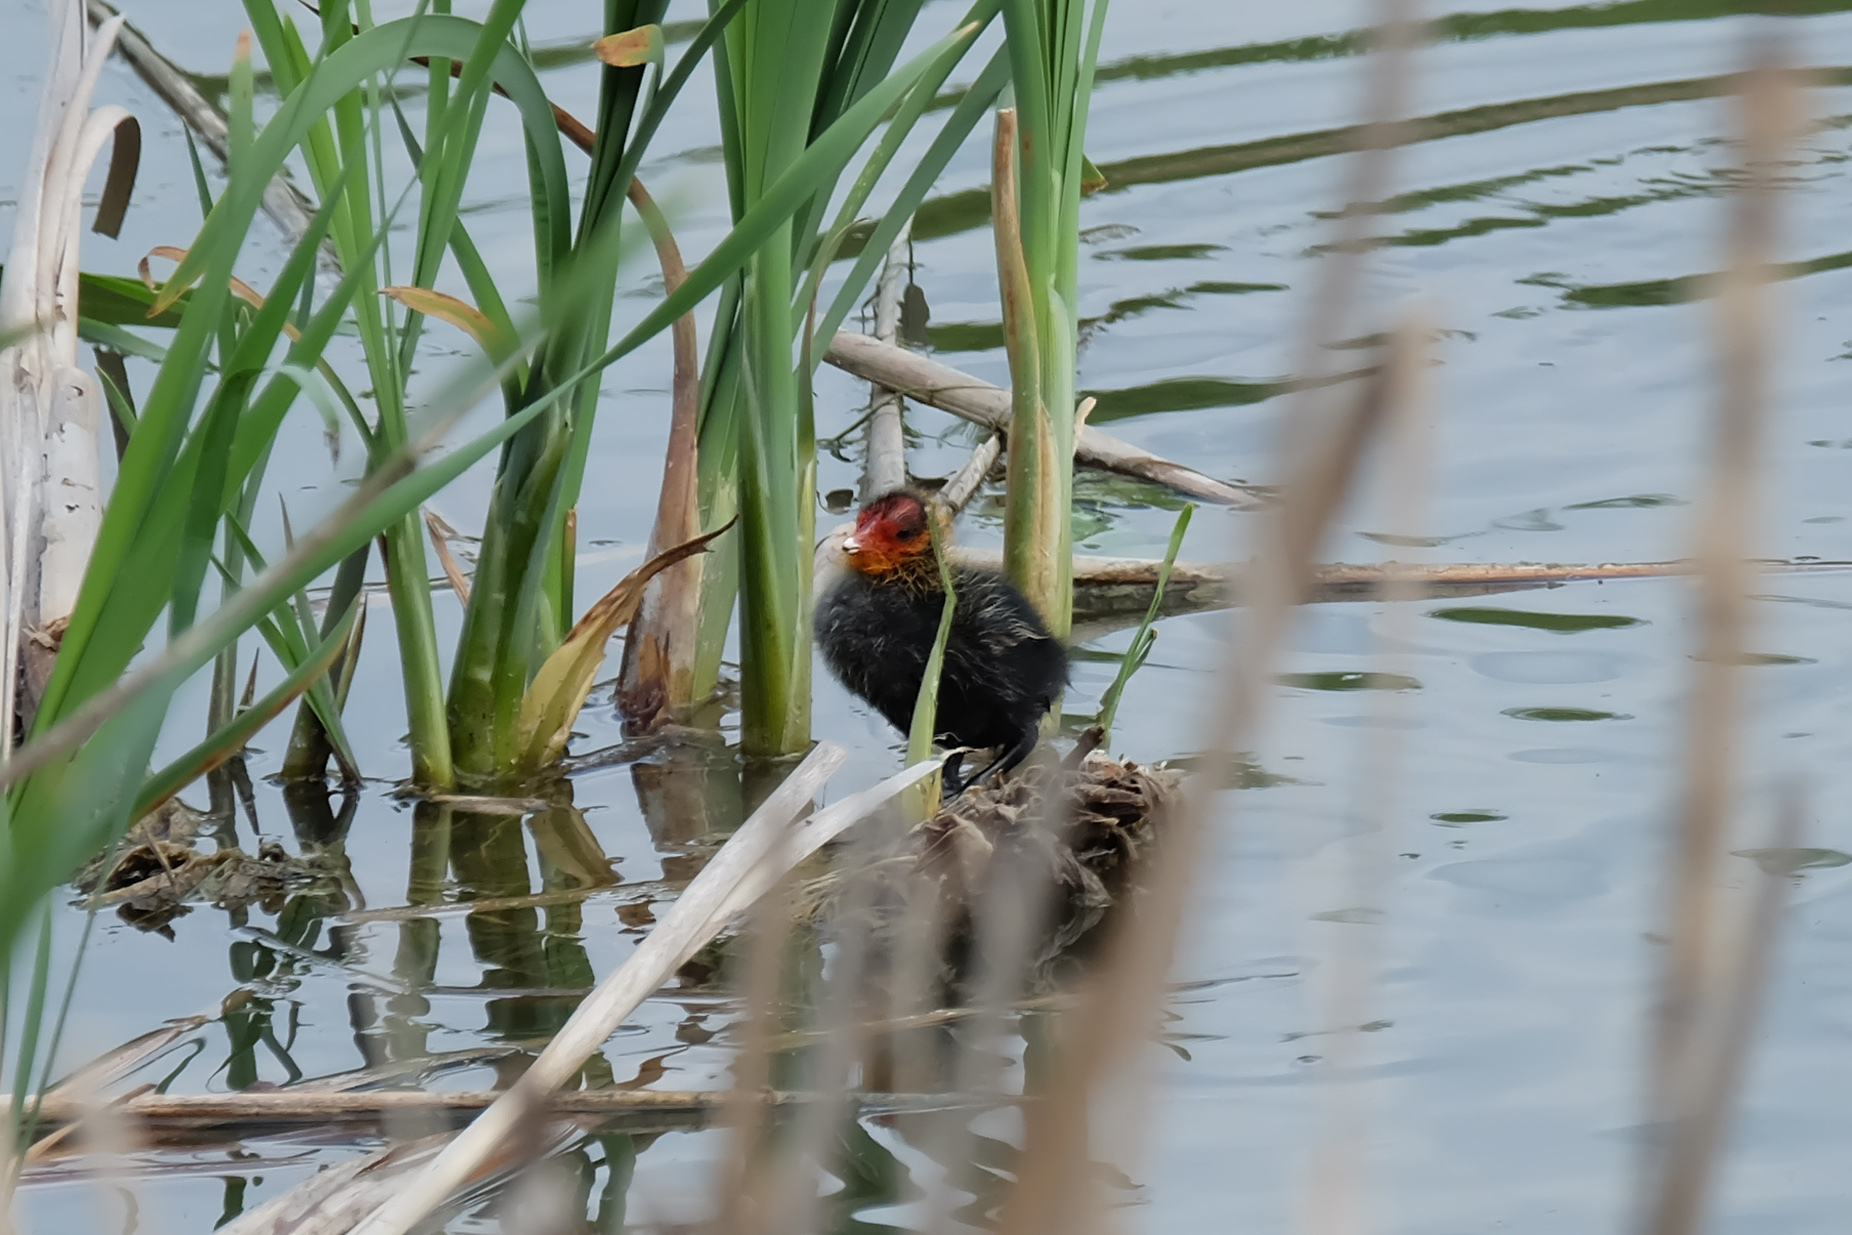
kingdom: Animalia
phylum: Chordata
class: Aves
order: Gruiformes
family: Rallidae
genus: Fulica
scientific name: Fulica atra
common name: Eurasian coot
